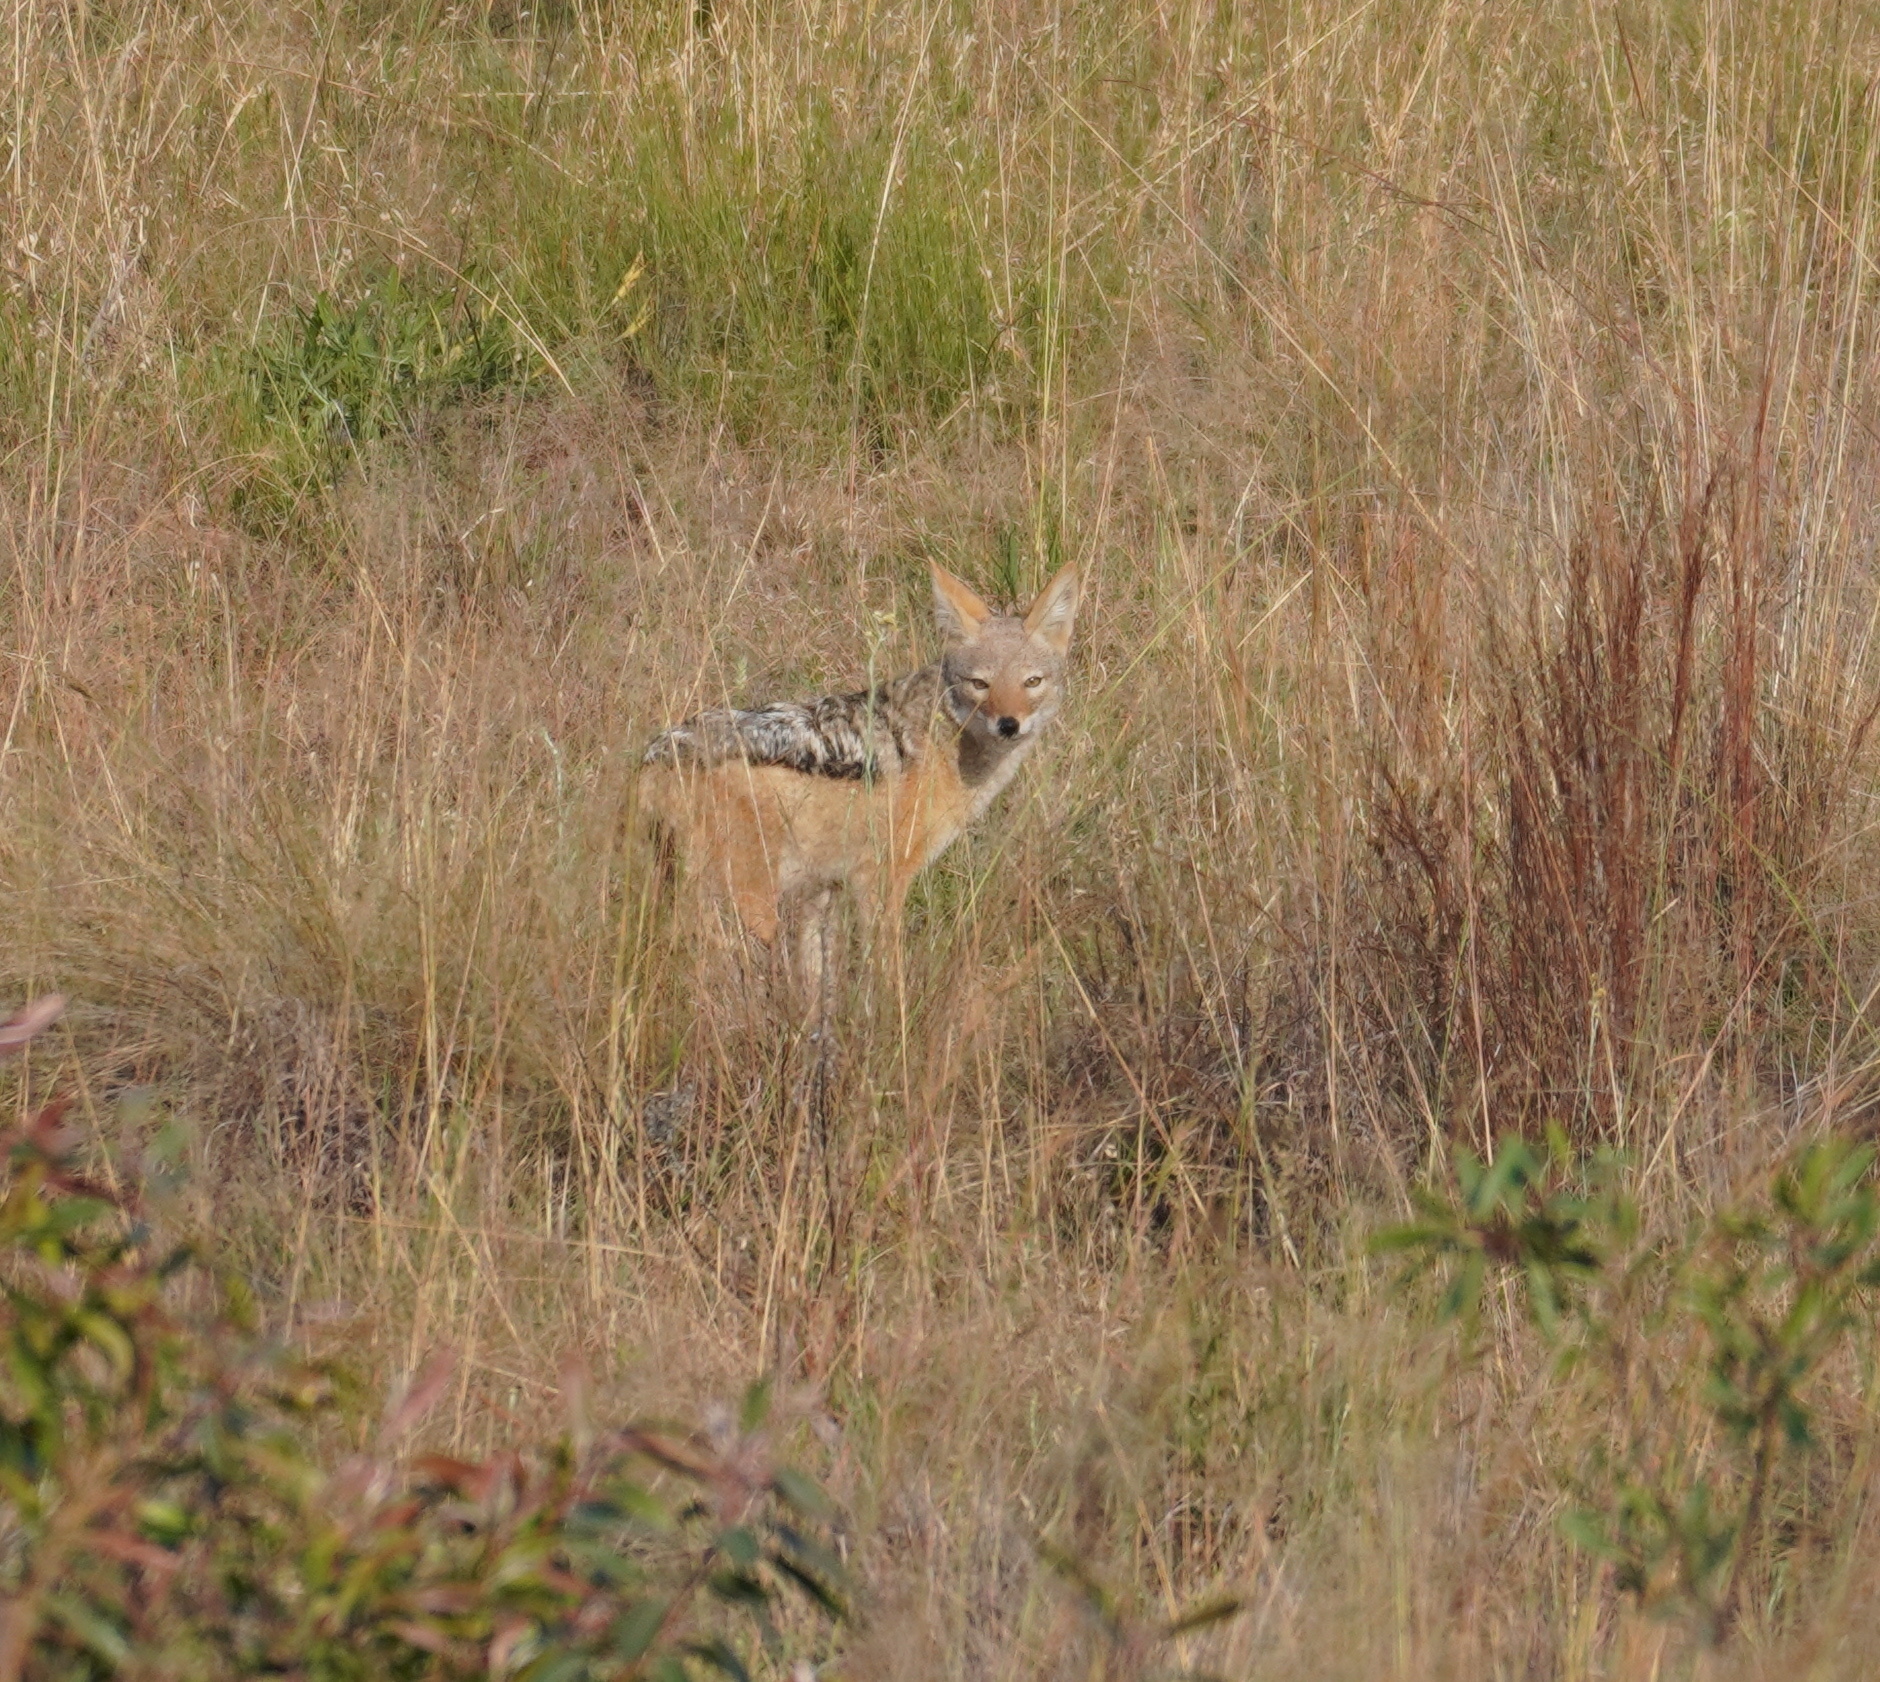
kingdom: Animalia
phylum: Chordata
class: Mammalia
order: Carnivora
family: Canidae
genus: Lupulella
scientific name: Lupulella
